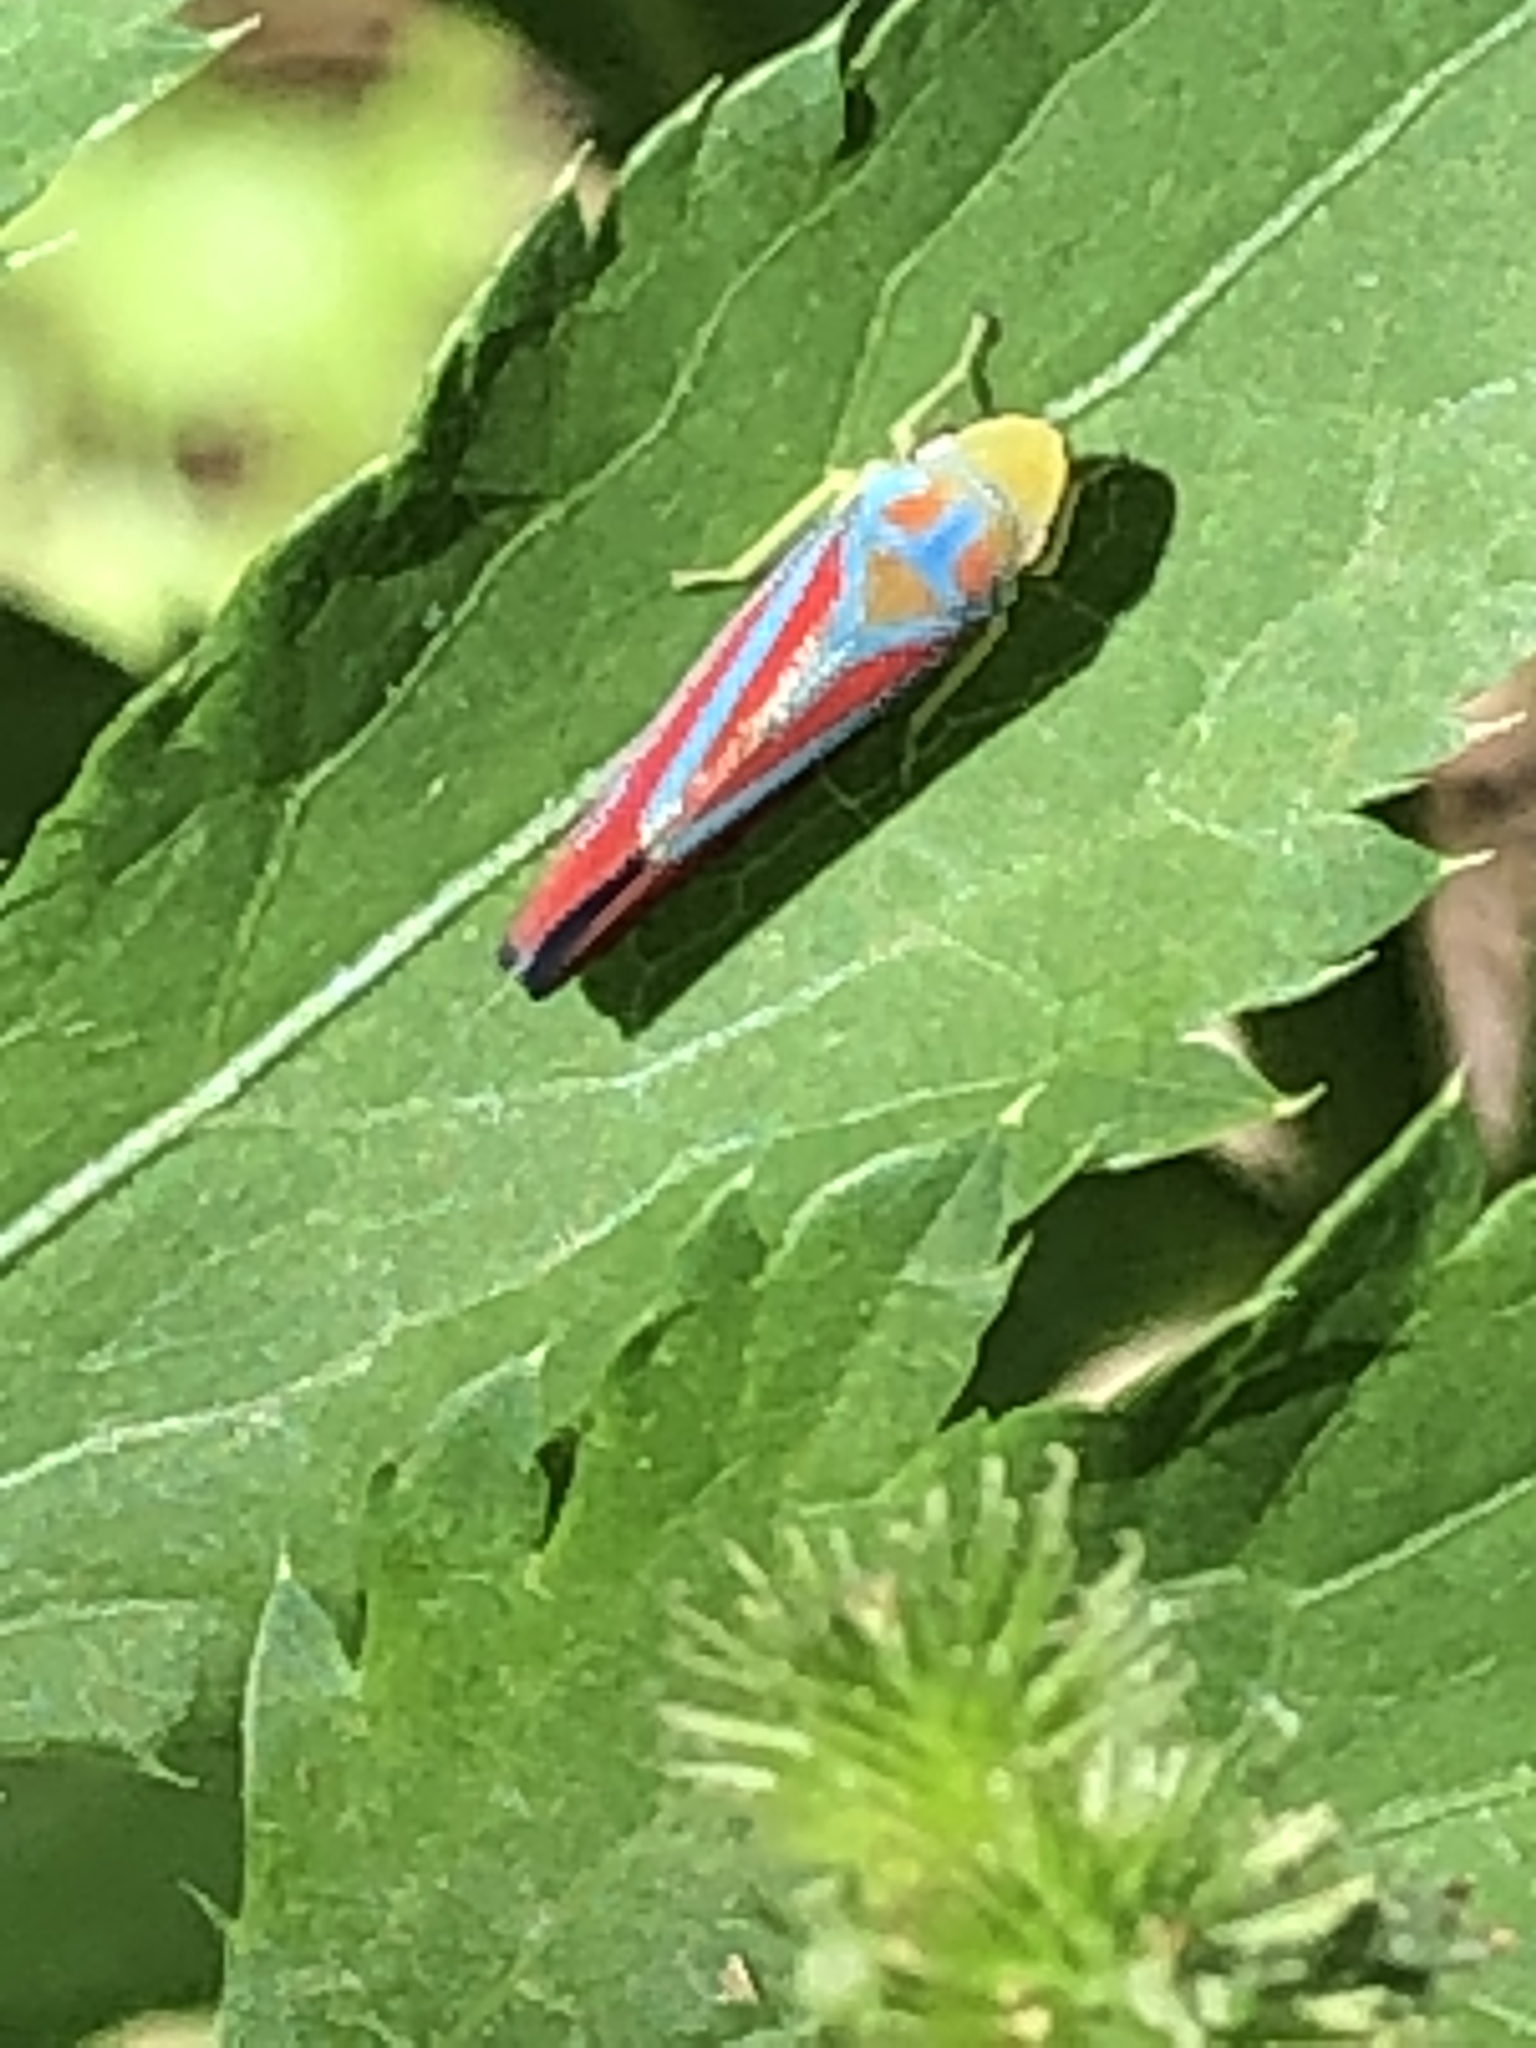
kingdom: Animalia
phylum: Arthropoda
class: Insecta
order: Hemiptera
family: Cicadellidae
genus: Graphocephala
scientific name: Graphocephala coccinea
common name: Candy-striped leafhopper
